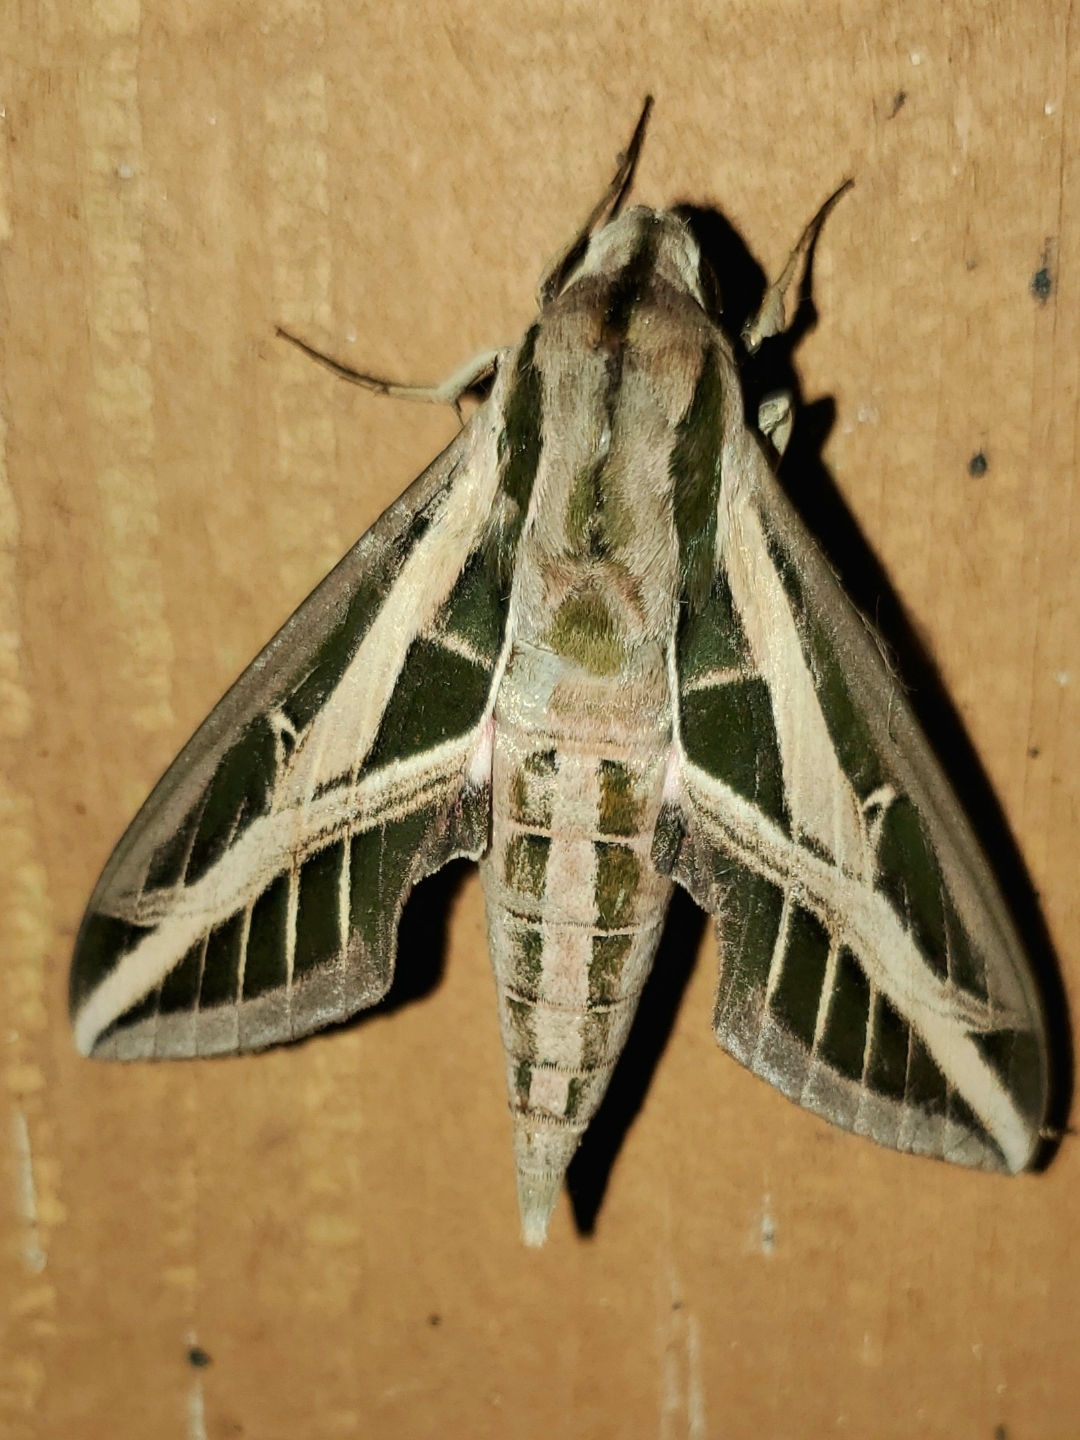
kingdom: Animalia
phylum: Arthropoda
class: Insecta
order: Lepidoptera
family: Sphingidae
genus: Eumorpha
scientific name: Eumorpha fasciatus
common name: Banded sphinx
